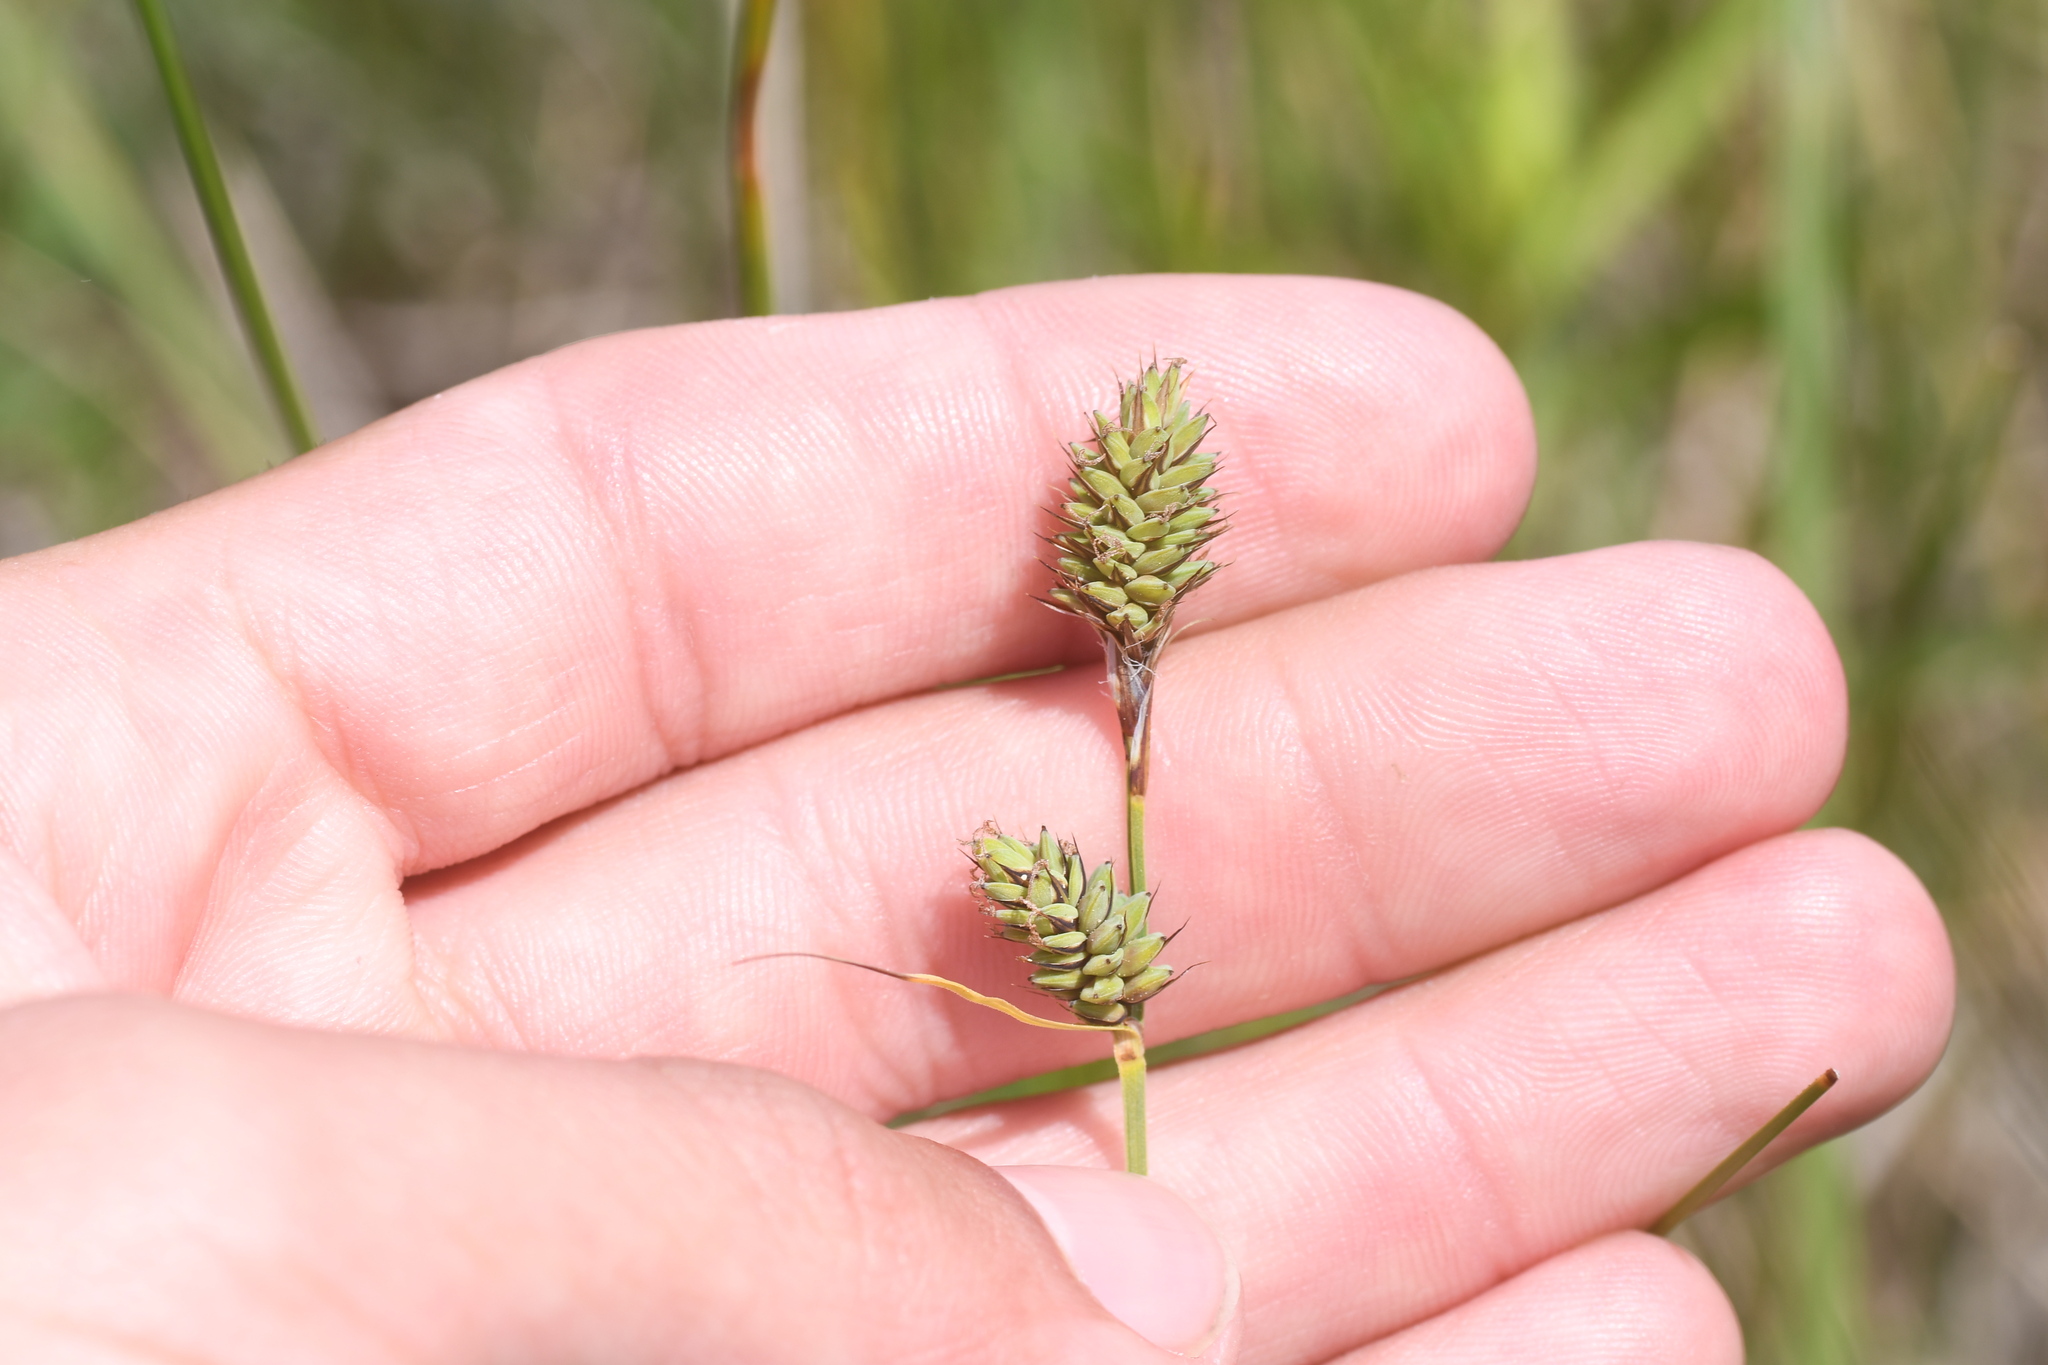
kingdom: Plantae
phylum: Tracheophyta
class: Liliopsida
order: Poales
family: Cyperaceae
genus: Carex
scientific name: Carex buxbaumii
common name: Club sedge
